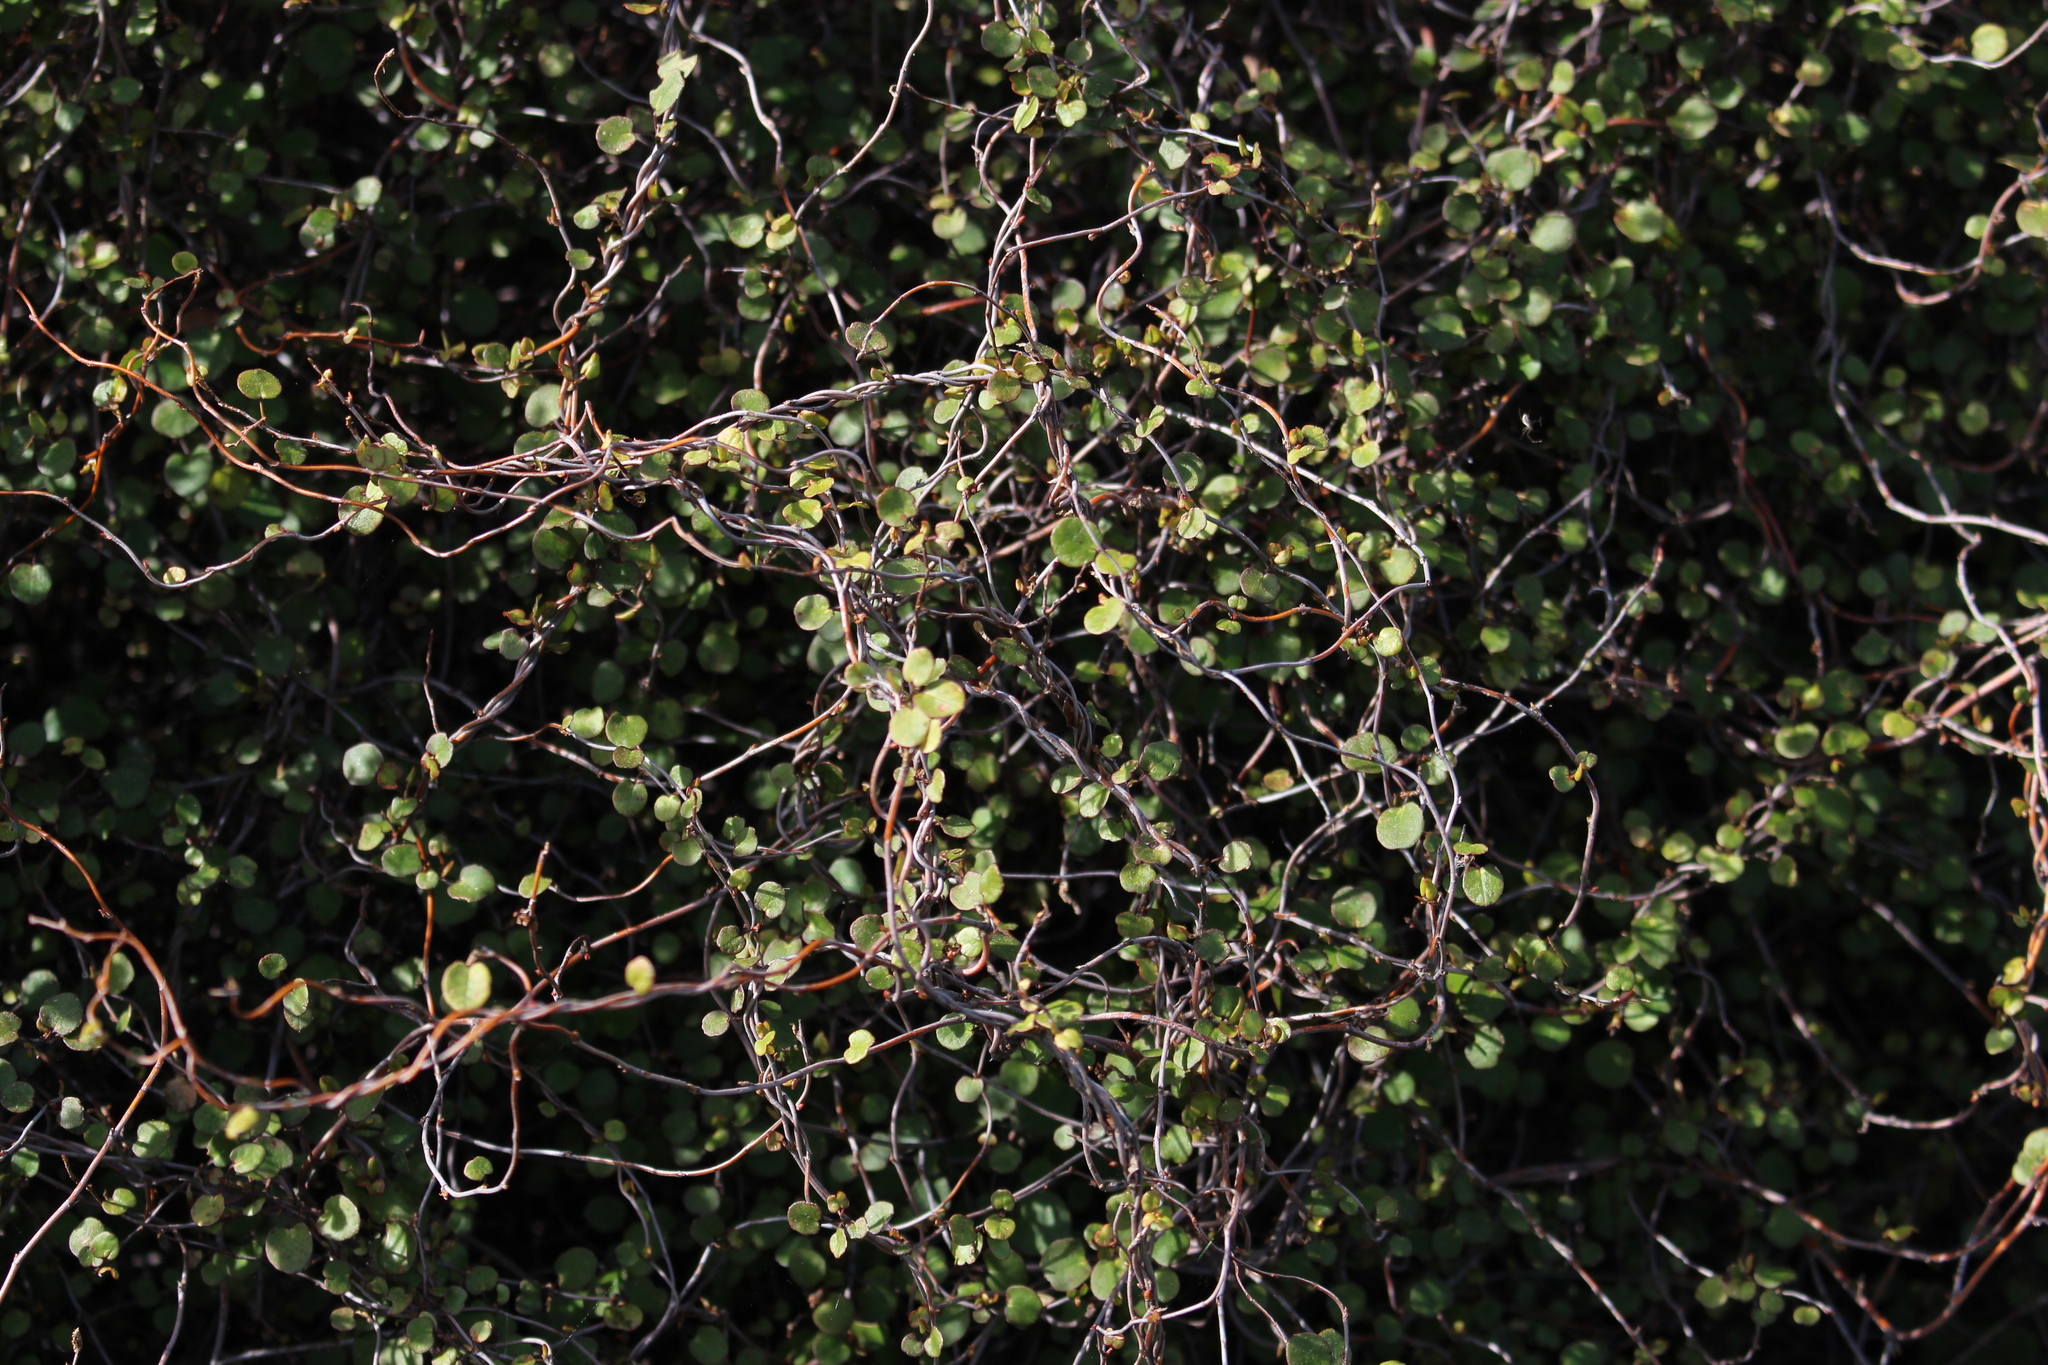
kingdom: Plantae
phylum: Tracheophyta
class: Magnoliopsida
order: Caryophyllales
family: Polygonaceae
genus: Muehlenbeckia
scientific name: Muehlenbeckia complexa
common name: Wireplant
